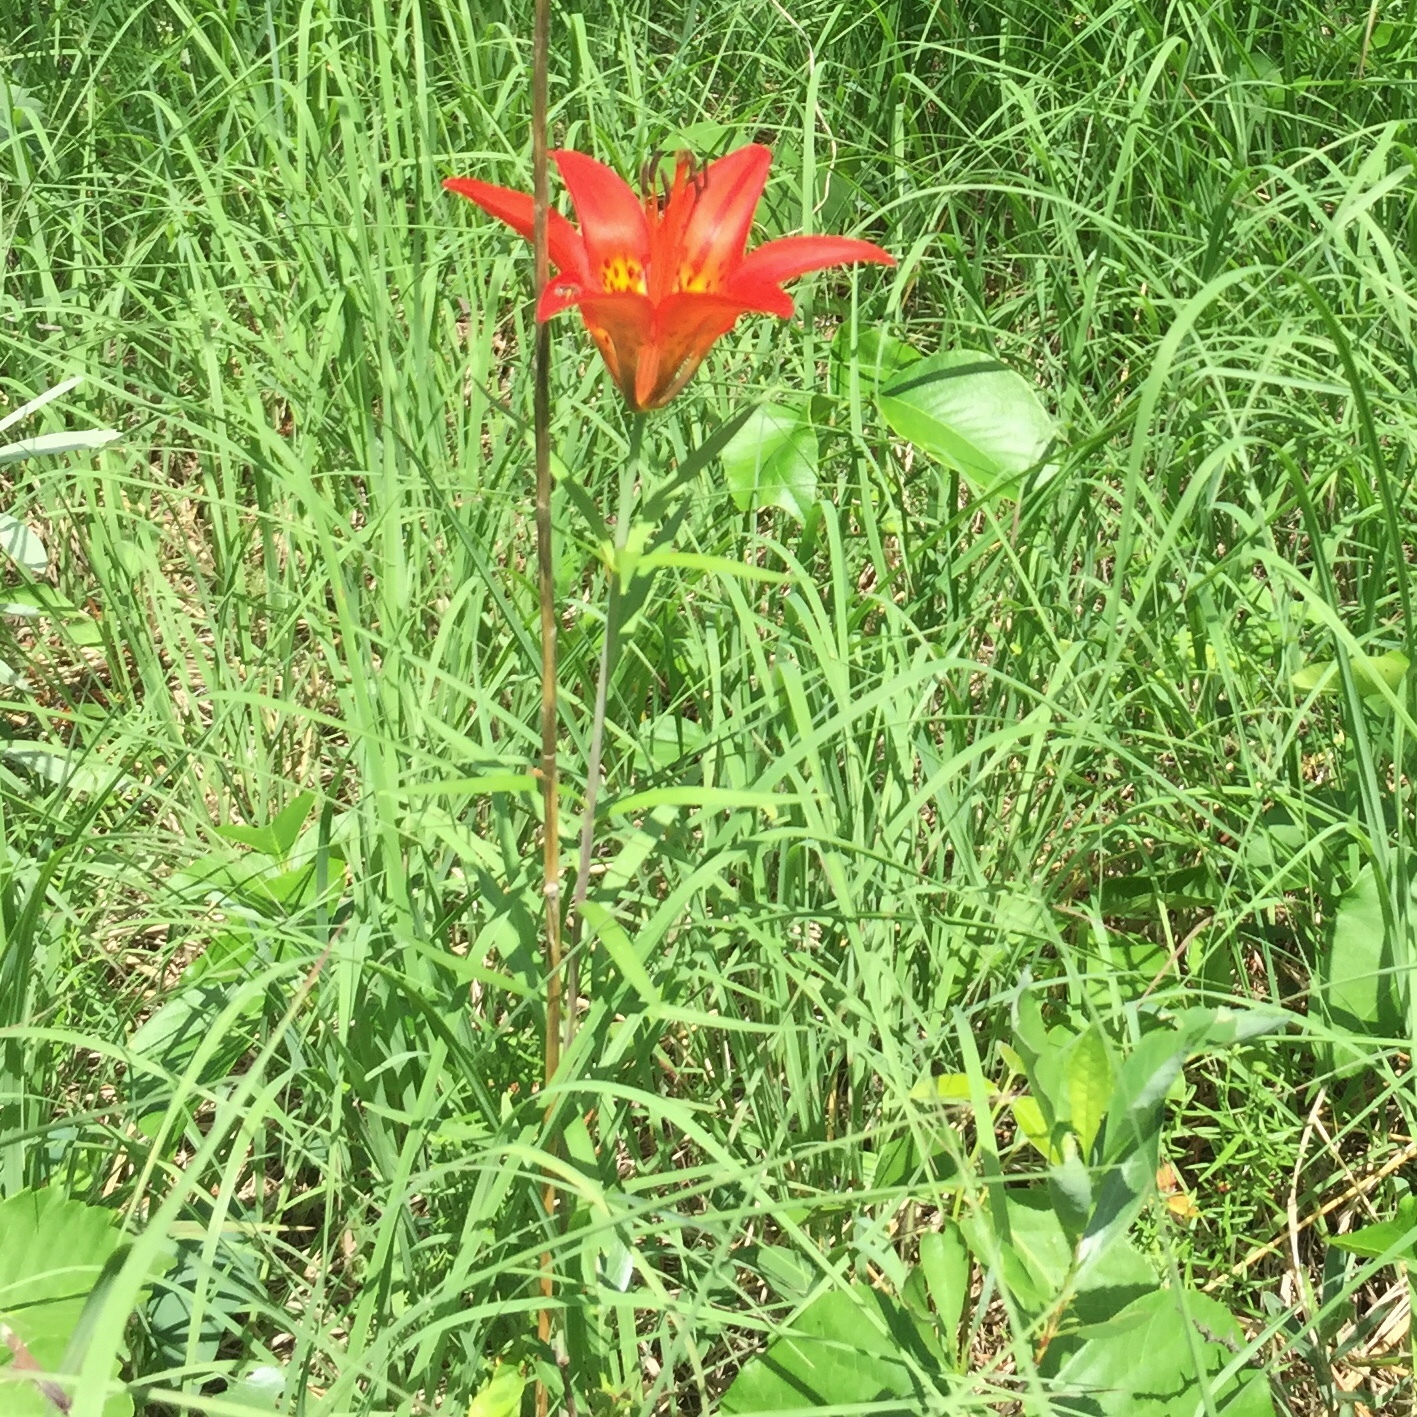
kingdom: Plantae
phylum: Tracheophyta
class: Liliopsida
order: Liliales
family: Liliaceae
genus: Lilium
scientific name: Lilium philadelphicum
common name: Red lily
